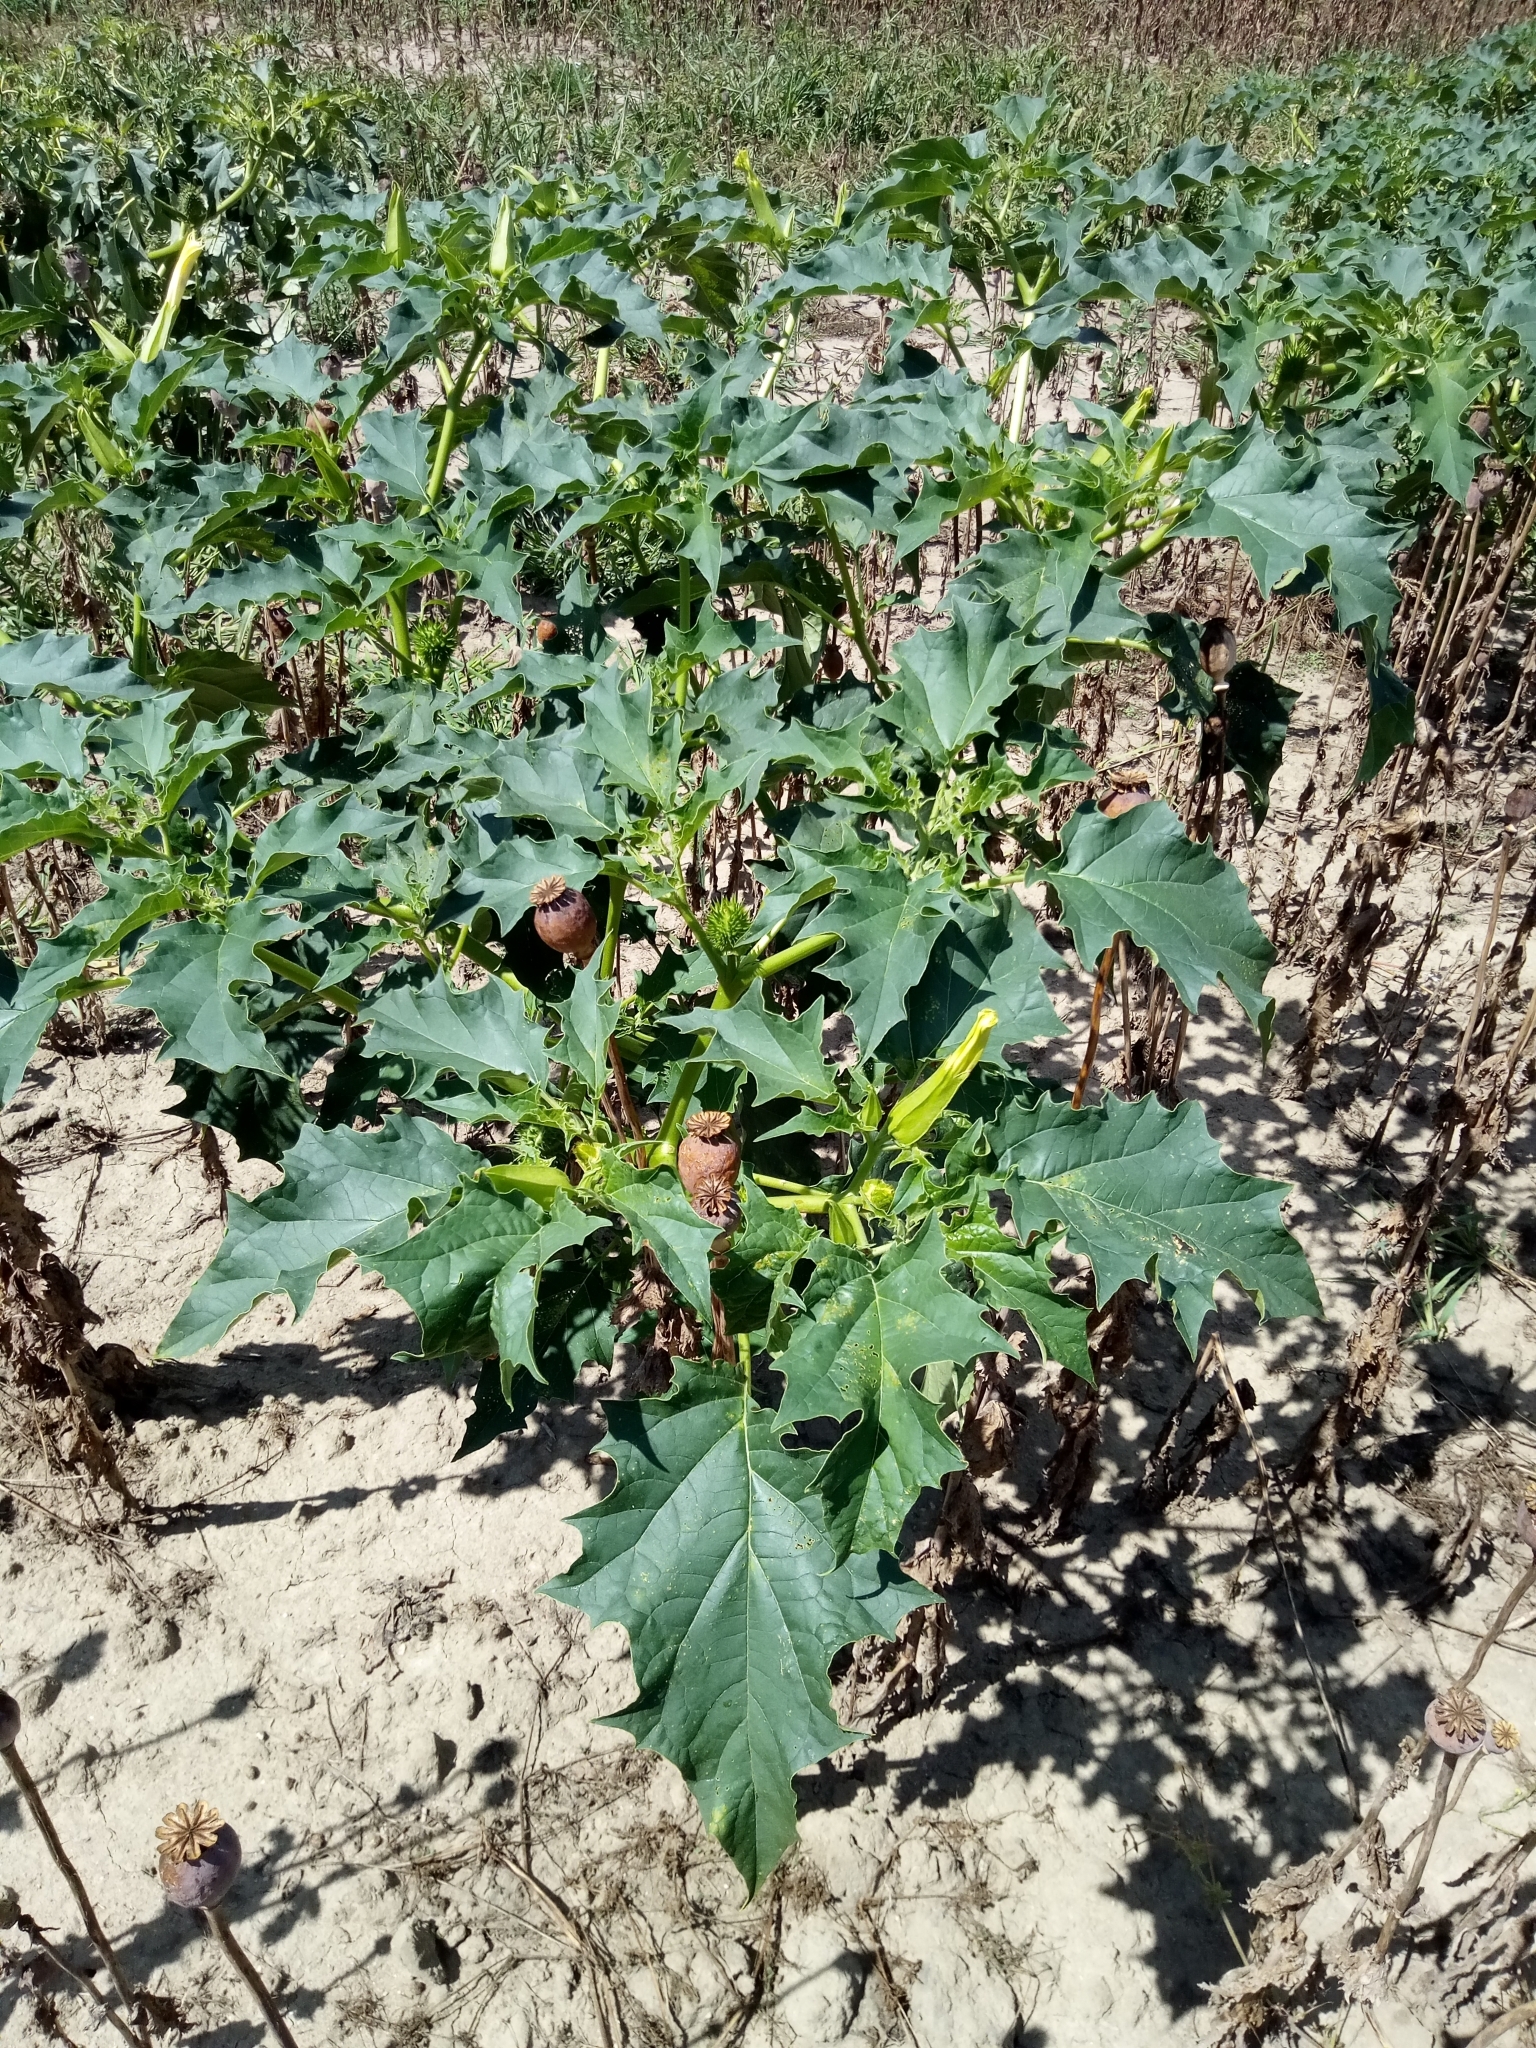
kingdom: Plantae
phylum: Tracheophyta
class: Magnoliopsida
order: Solanales
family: Solanaceae
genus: Datura
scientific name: Datura stramonium
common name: Thorn-apple
